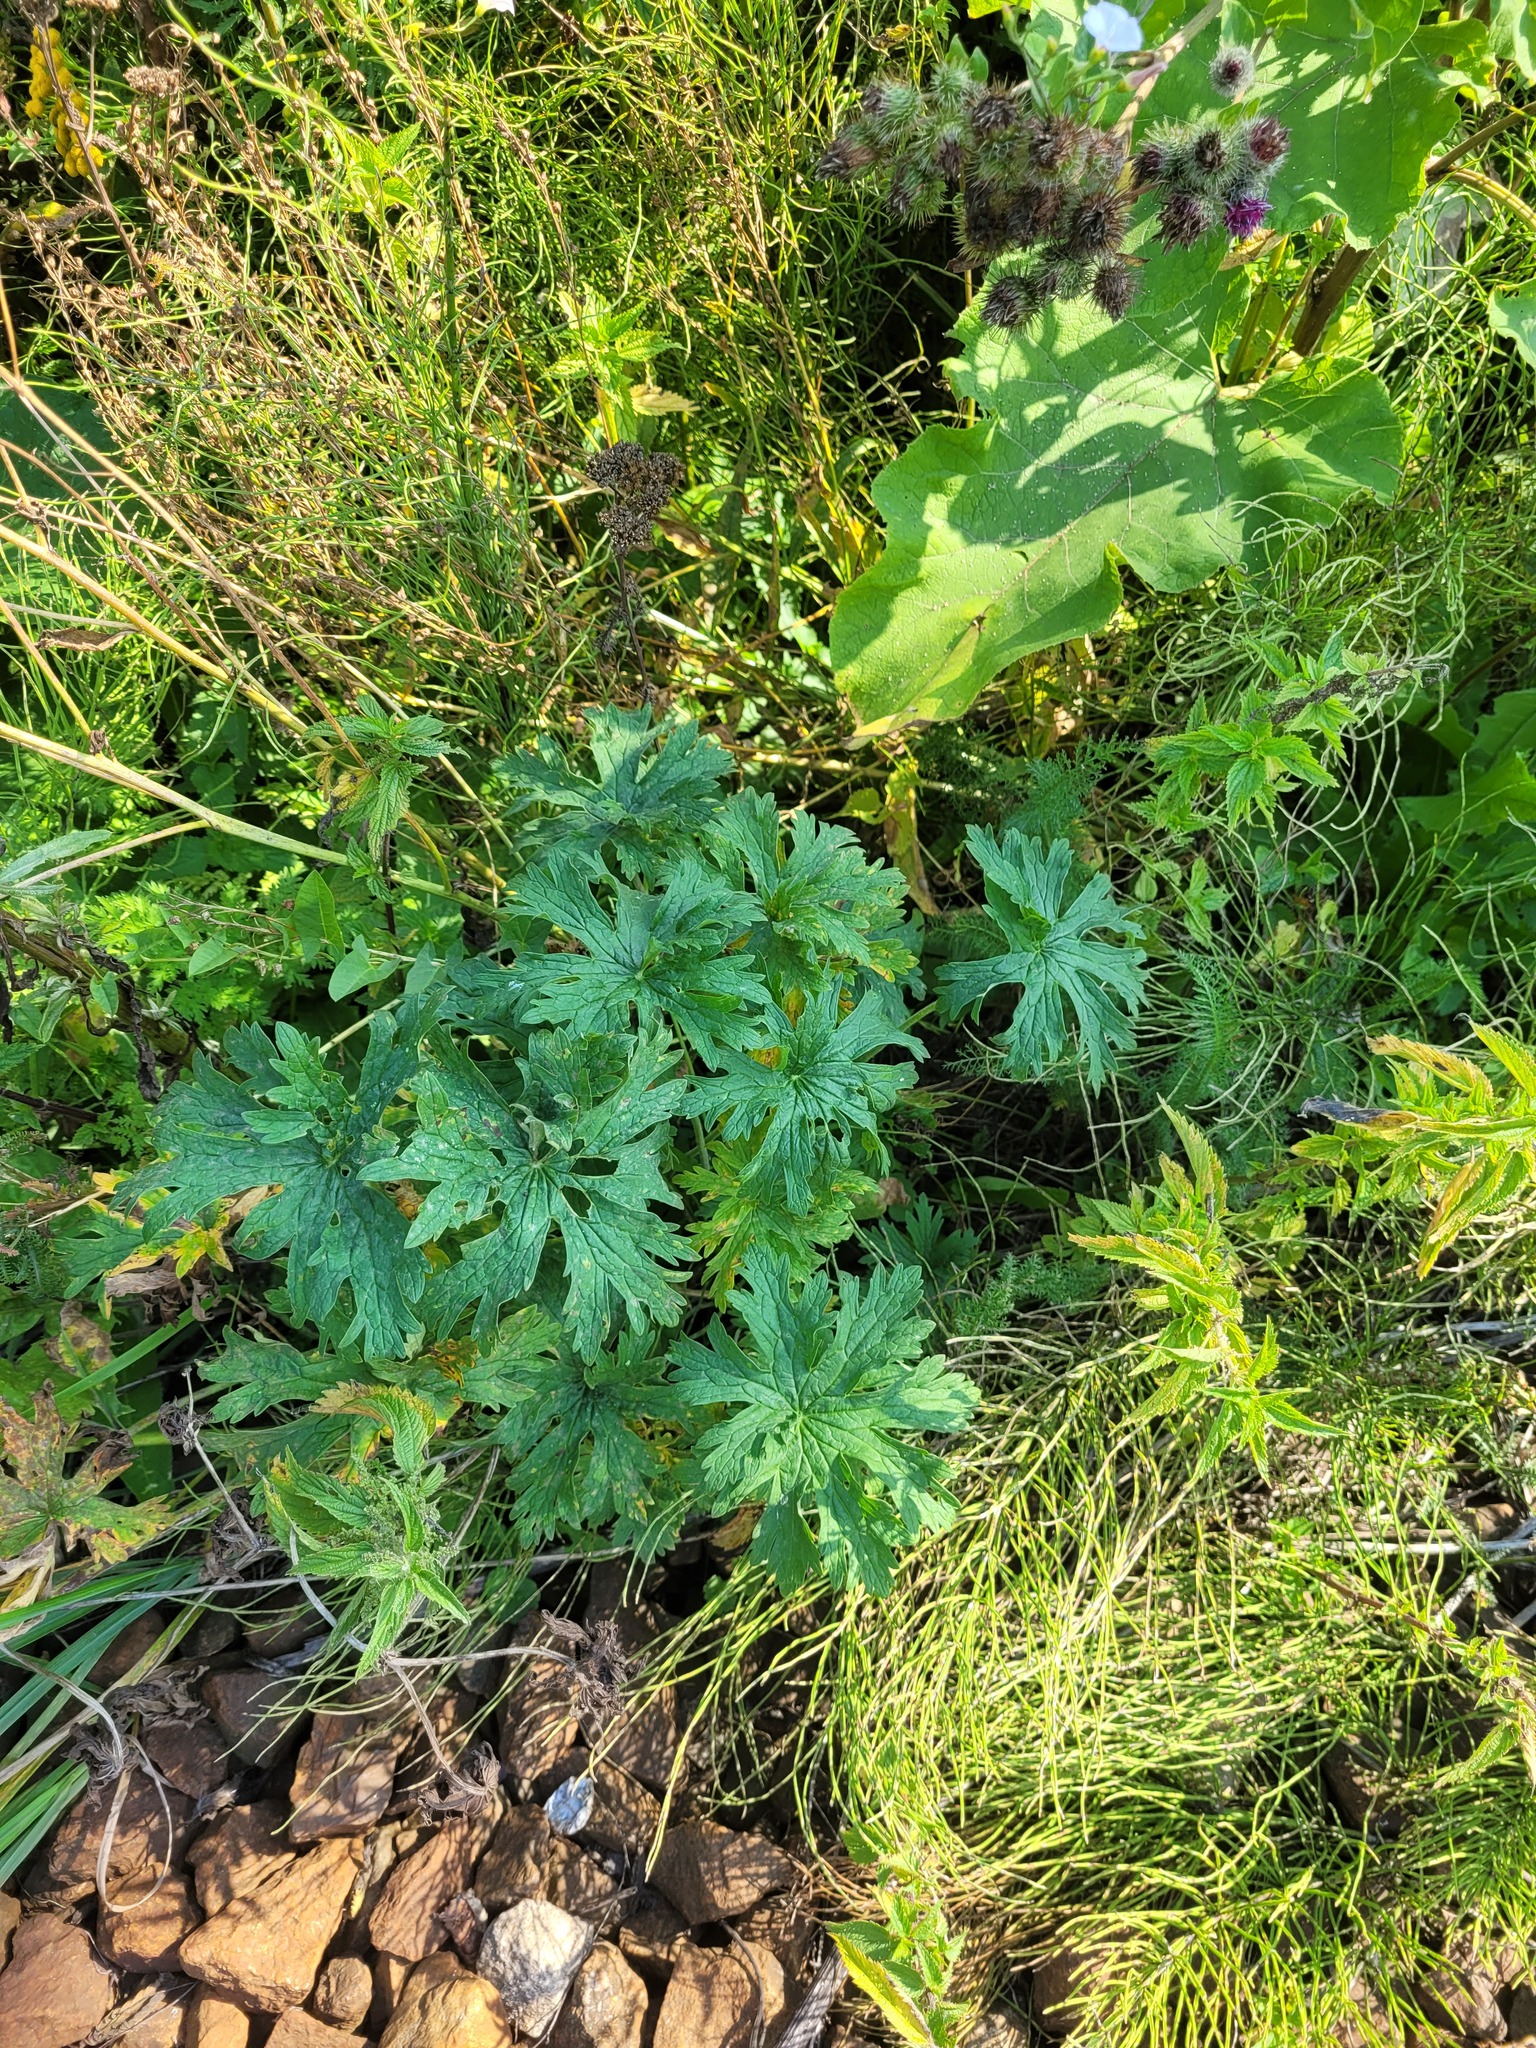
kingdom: Plantae
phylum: Tracheophyta
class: Magnoliopsida
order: Geraniales
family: Geraniaceae
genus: Geranium
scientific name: Geranium pratense
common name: Meadow crane's-bill
